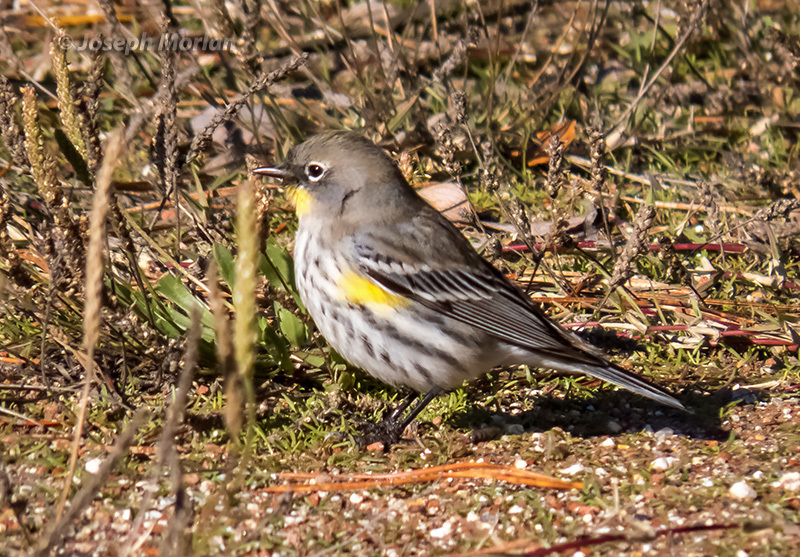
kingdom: Animalia
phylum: Chordata
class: Aves
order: Passeriformes
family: Parulidae
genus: Setophaga
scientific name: Setophaga coronata
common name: Myrtle warbler
